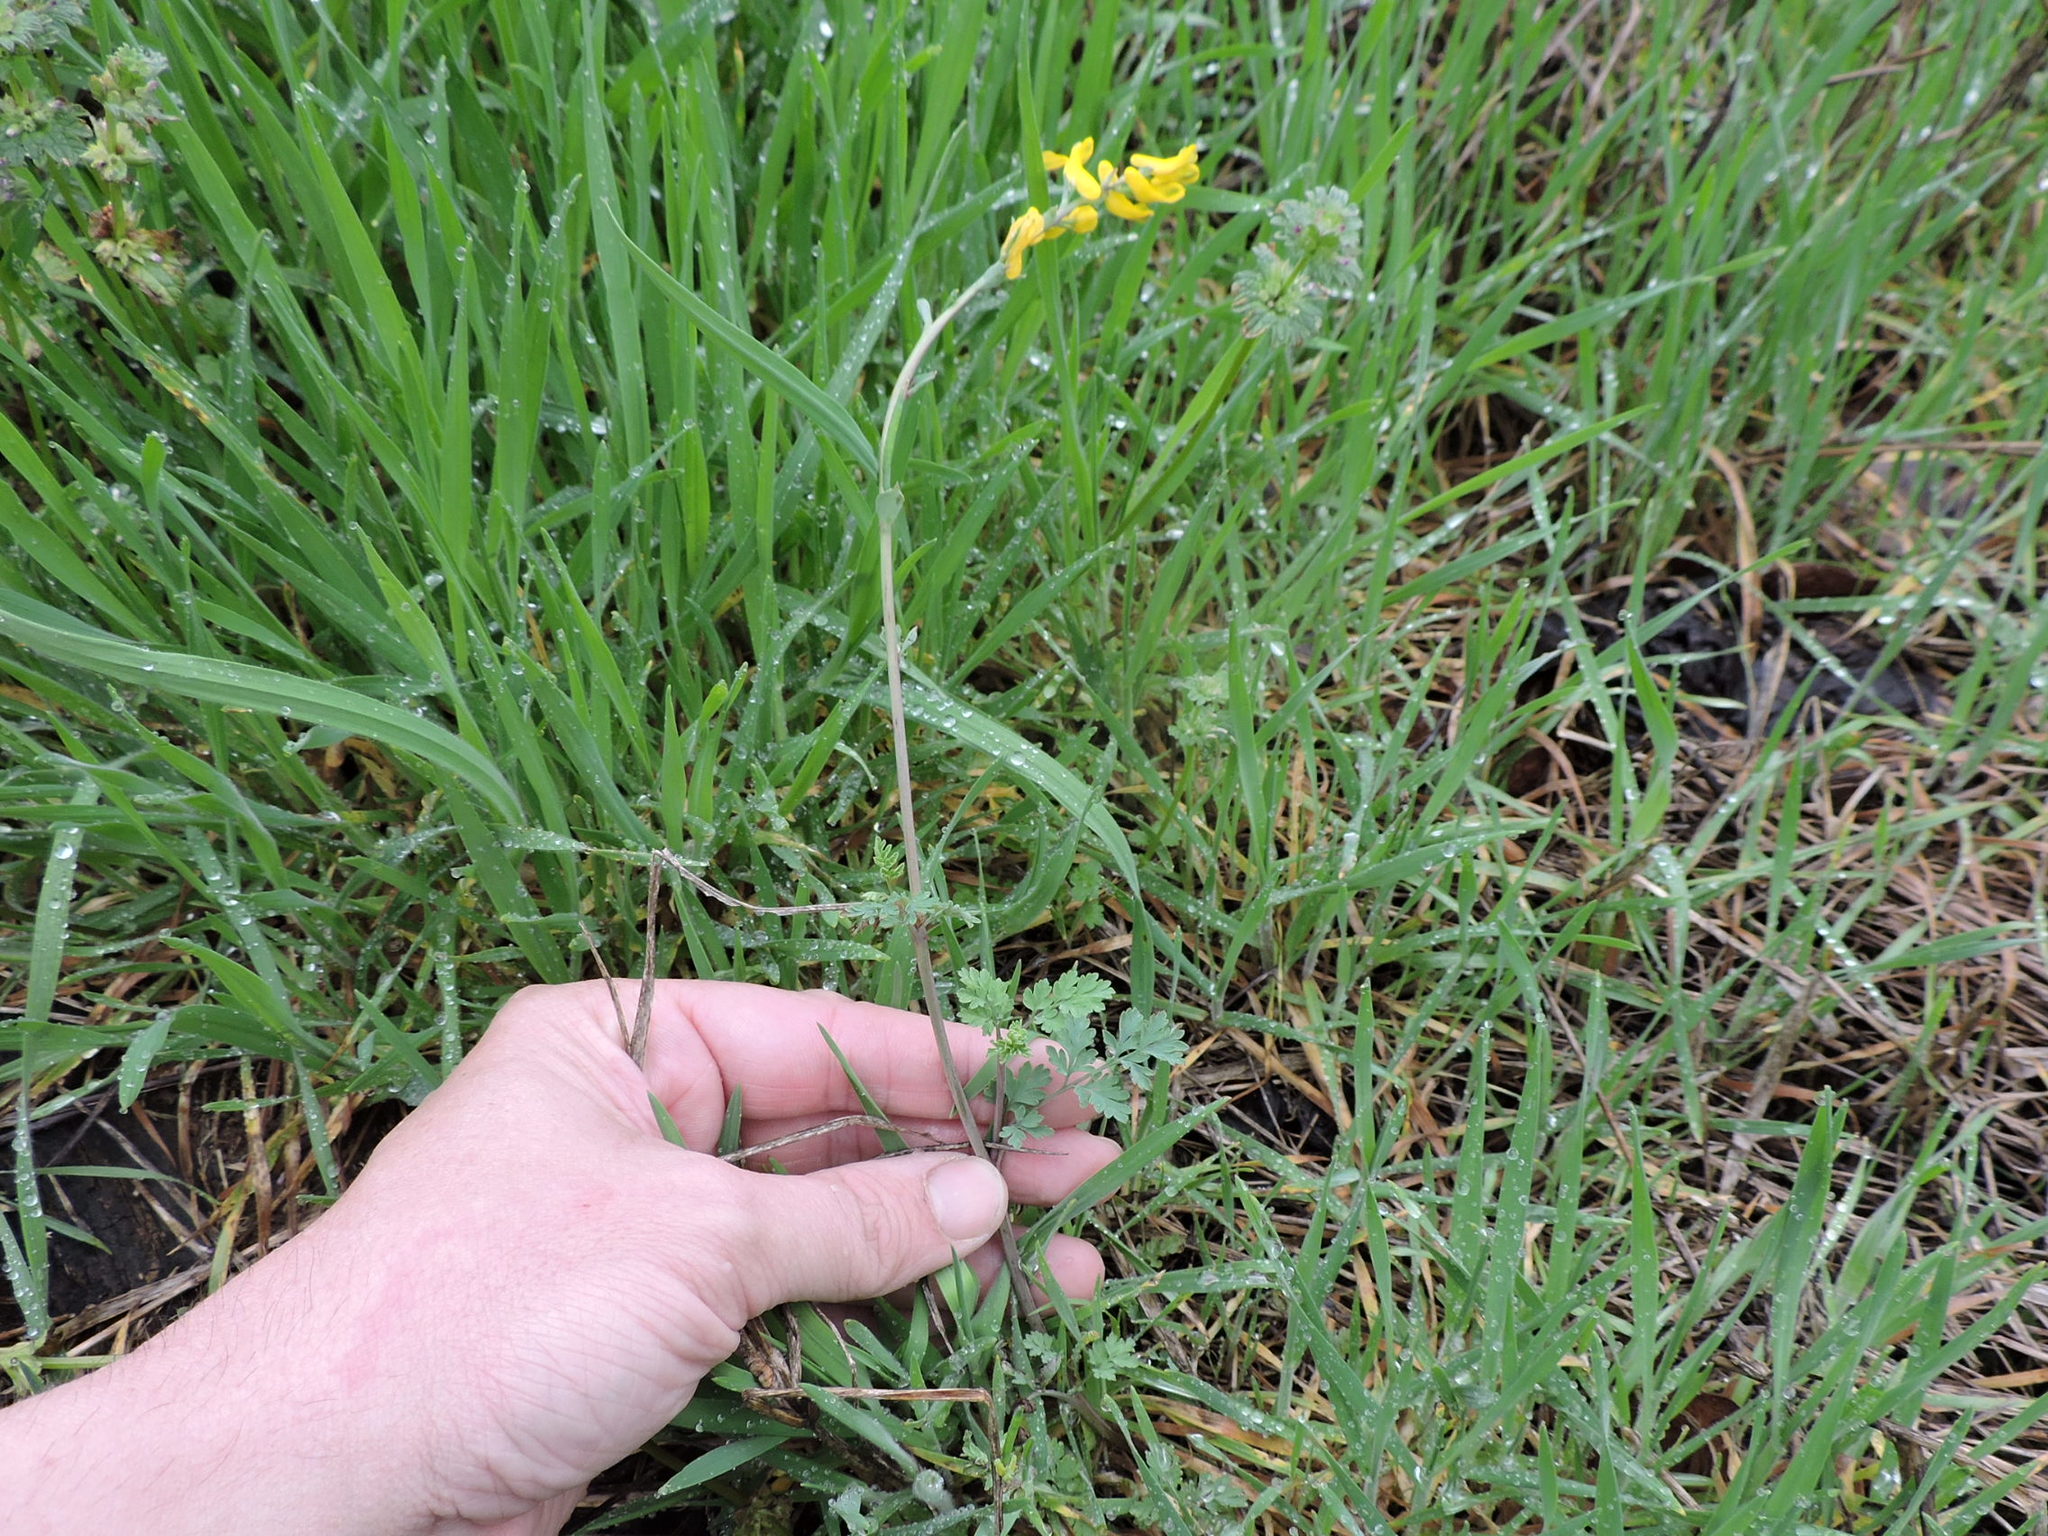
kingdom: Plantae
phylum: Tracheophyta
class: Magnoliopsida
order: Ranunculales
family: Papaveraceae
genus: Corydalis
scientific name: Corydalis curvisiliqua
